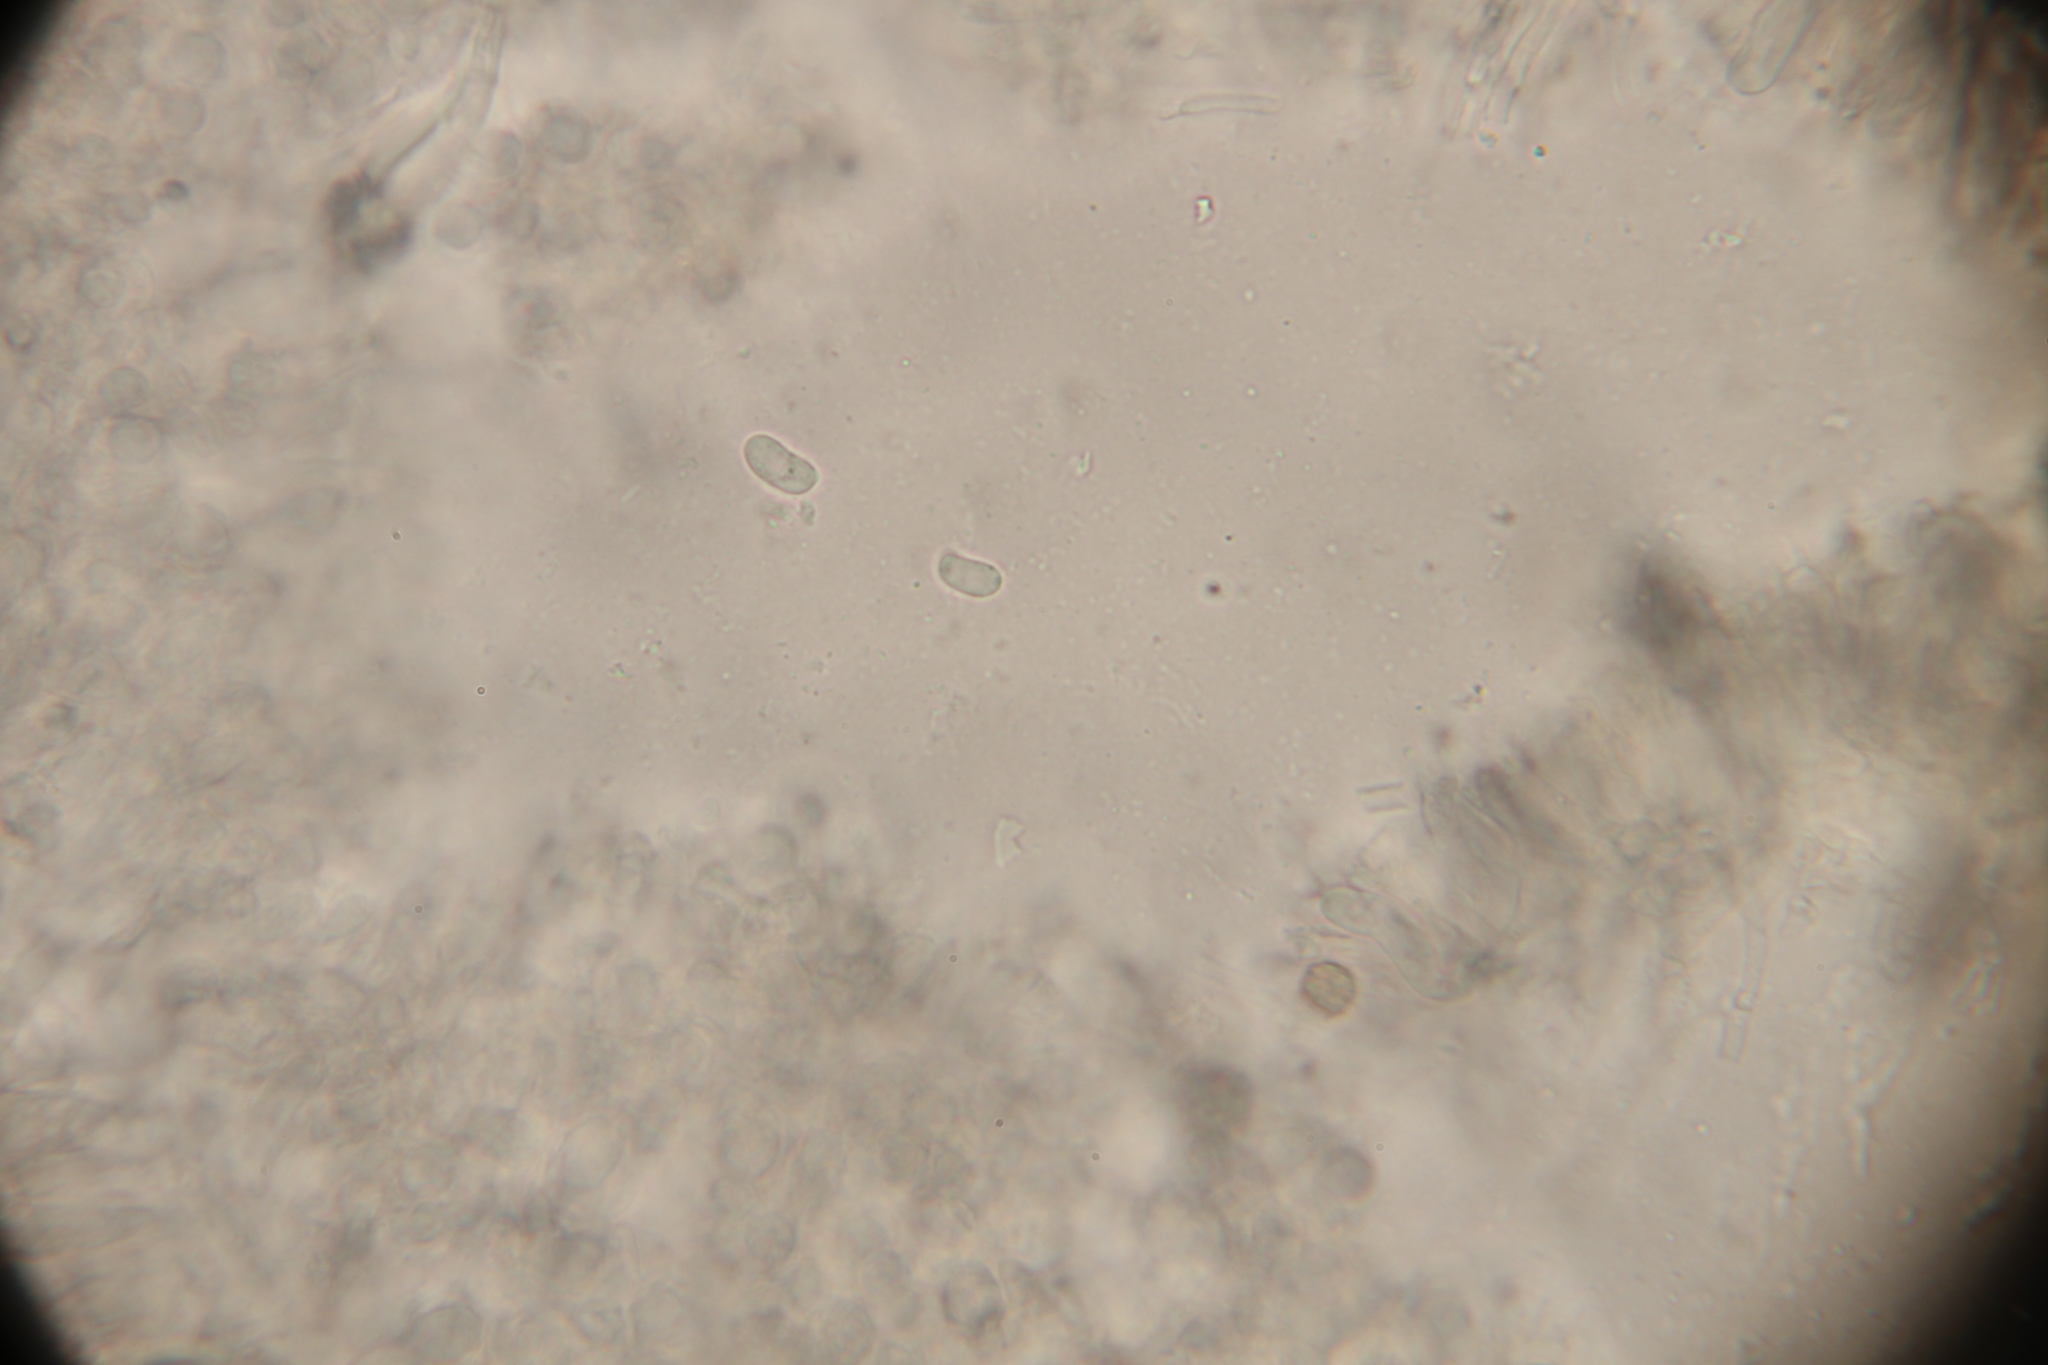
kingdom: Fungi
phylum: Basidiomycota
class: Agaricomycetes
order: Agaricales
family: Pleurotaceae
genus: Hohenbuehelia
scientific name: Hohenbuehelia mastrucata
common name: Woolly oyster
